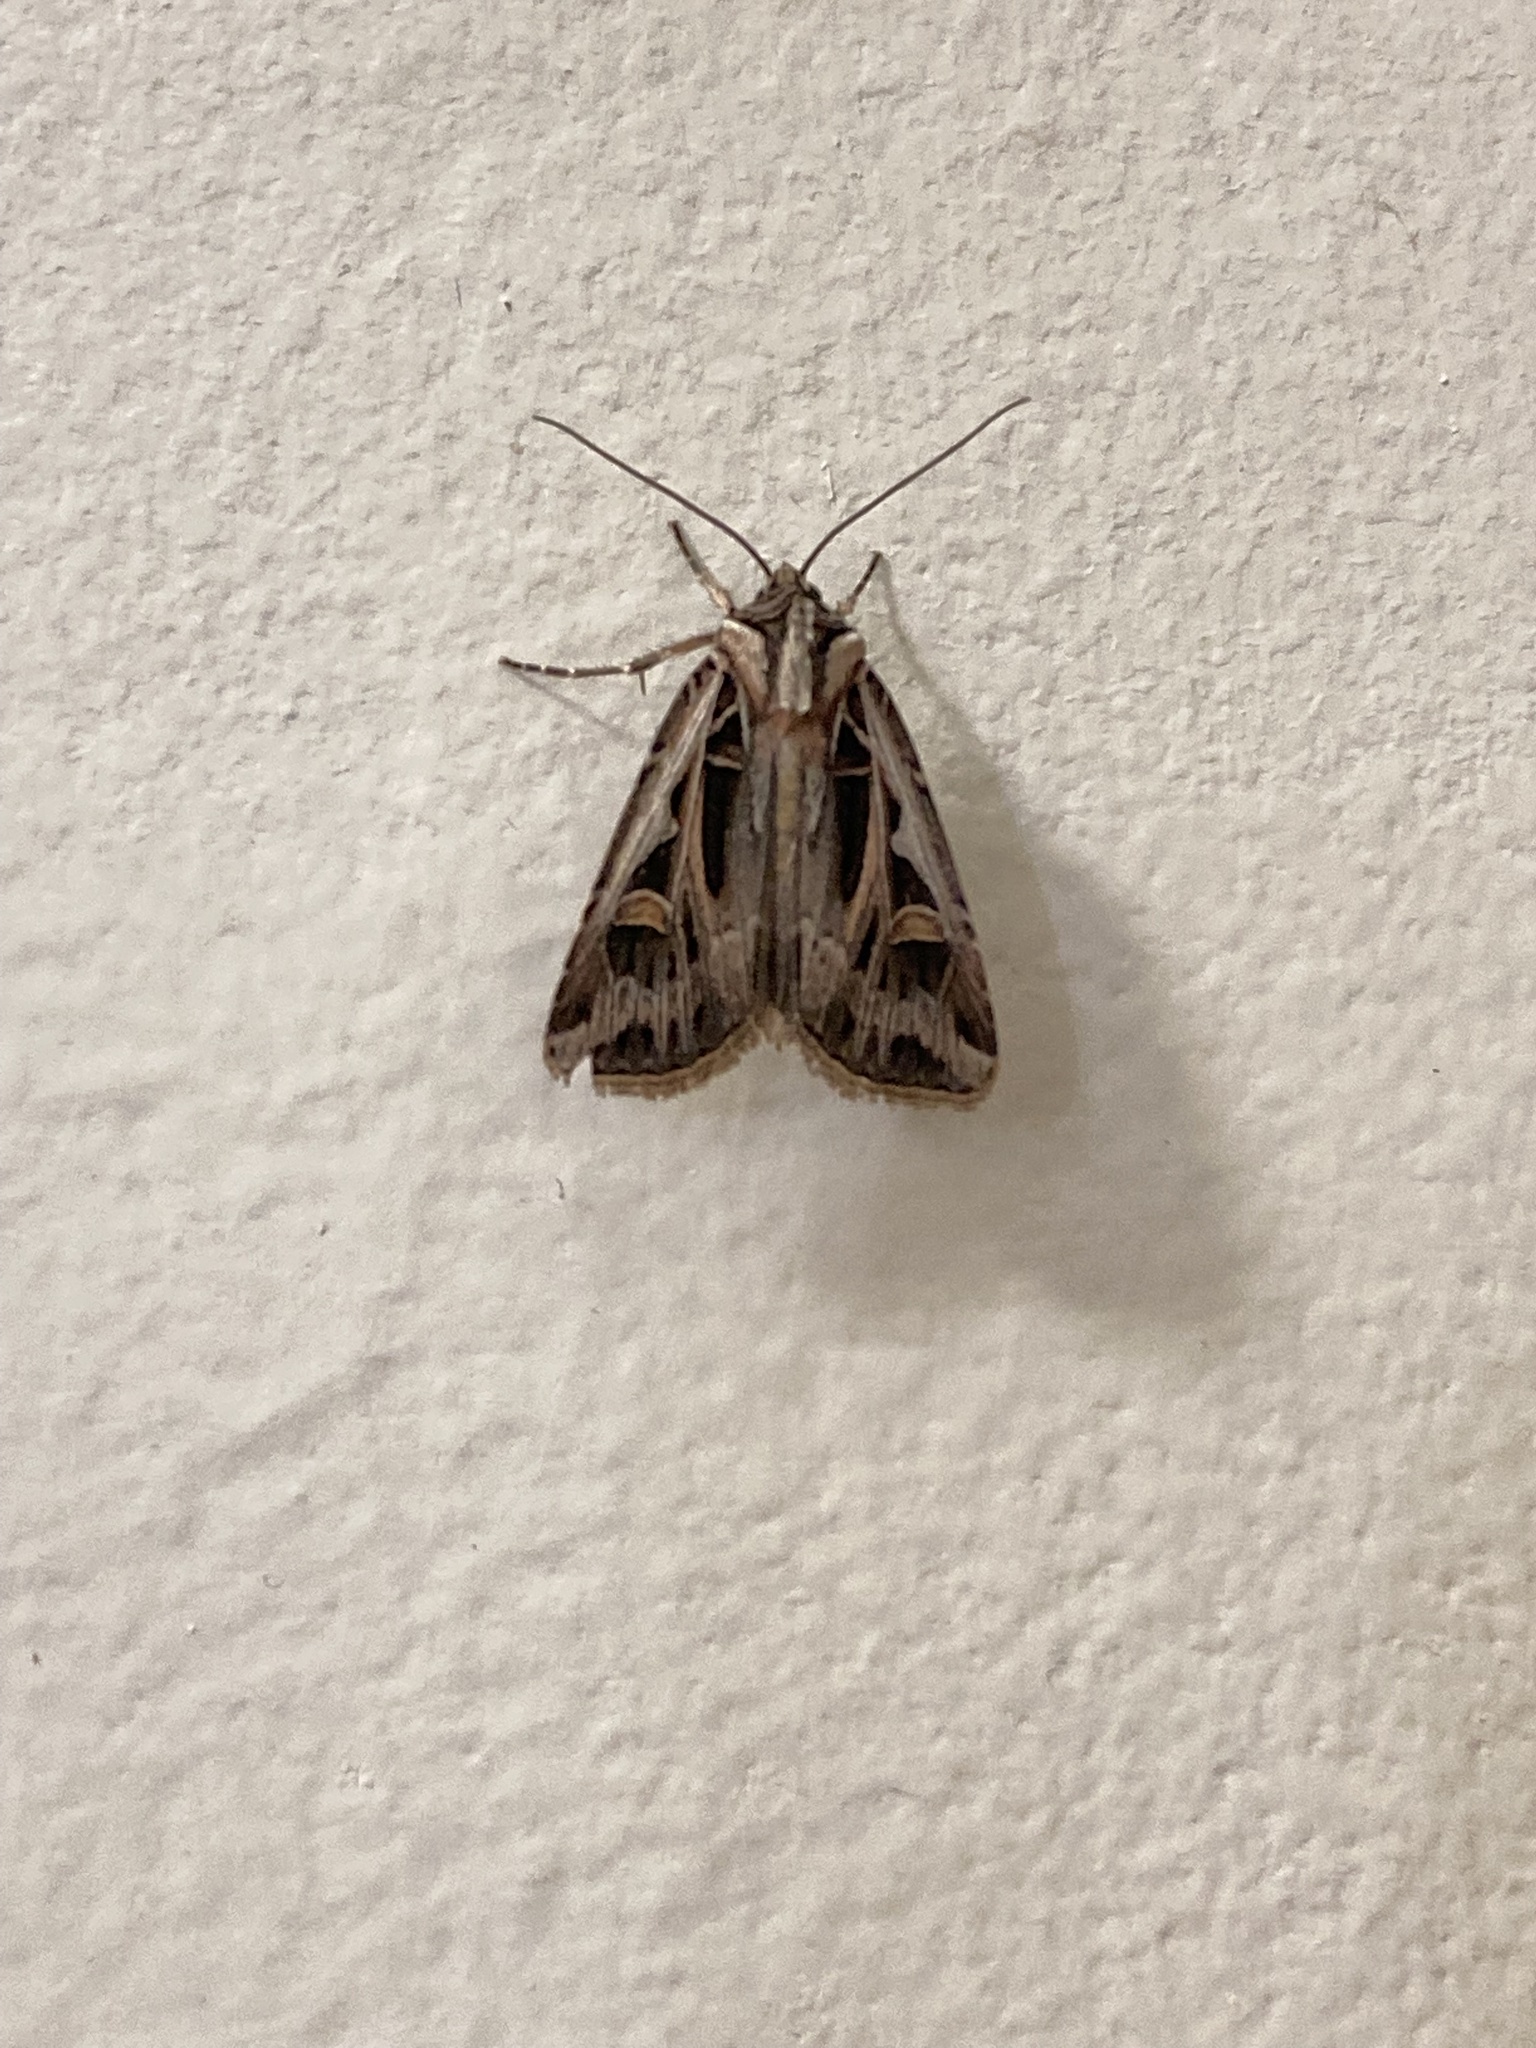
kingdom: Animalia
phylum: Arthropoda
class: Insecta
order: Lepidoptera
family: Noctuidae
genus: Feltia
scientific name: Feltia jaculifera
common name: Dingy cutworm moth
